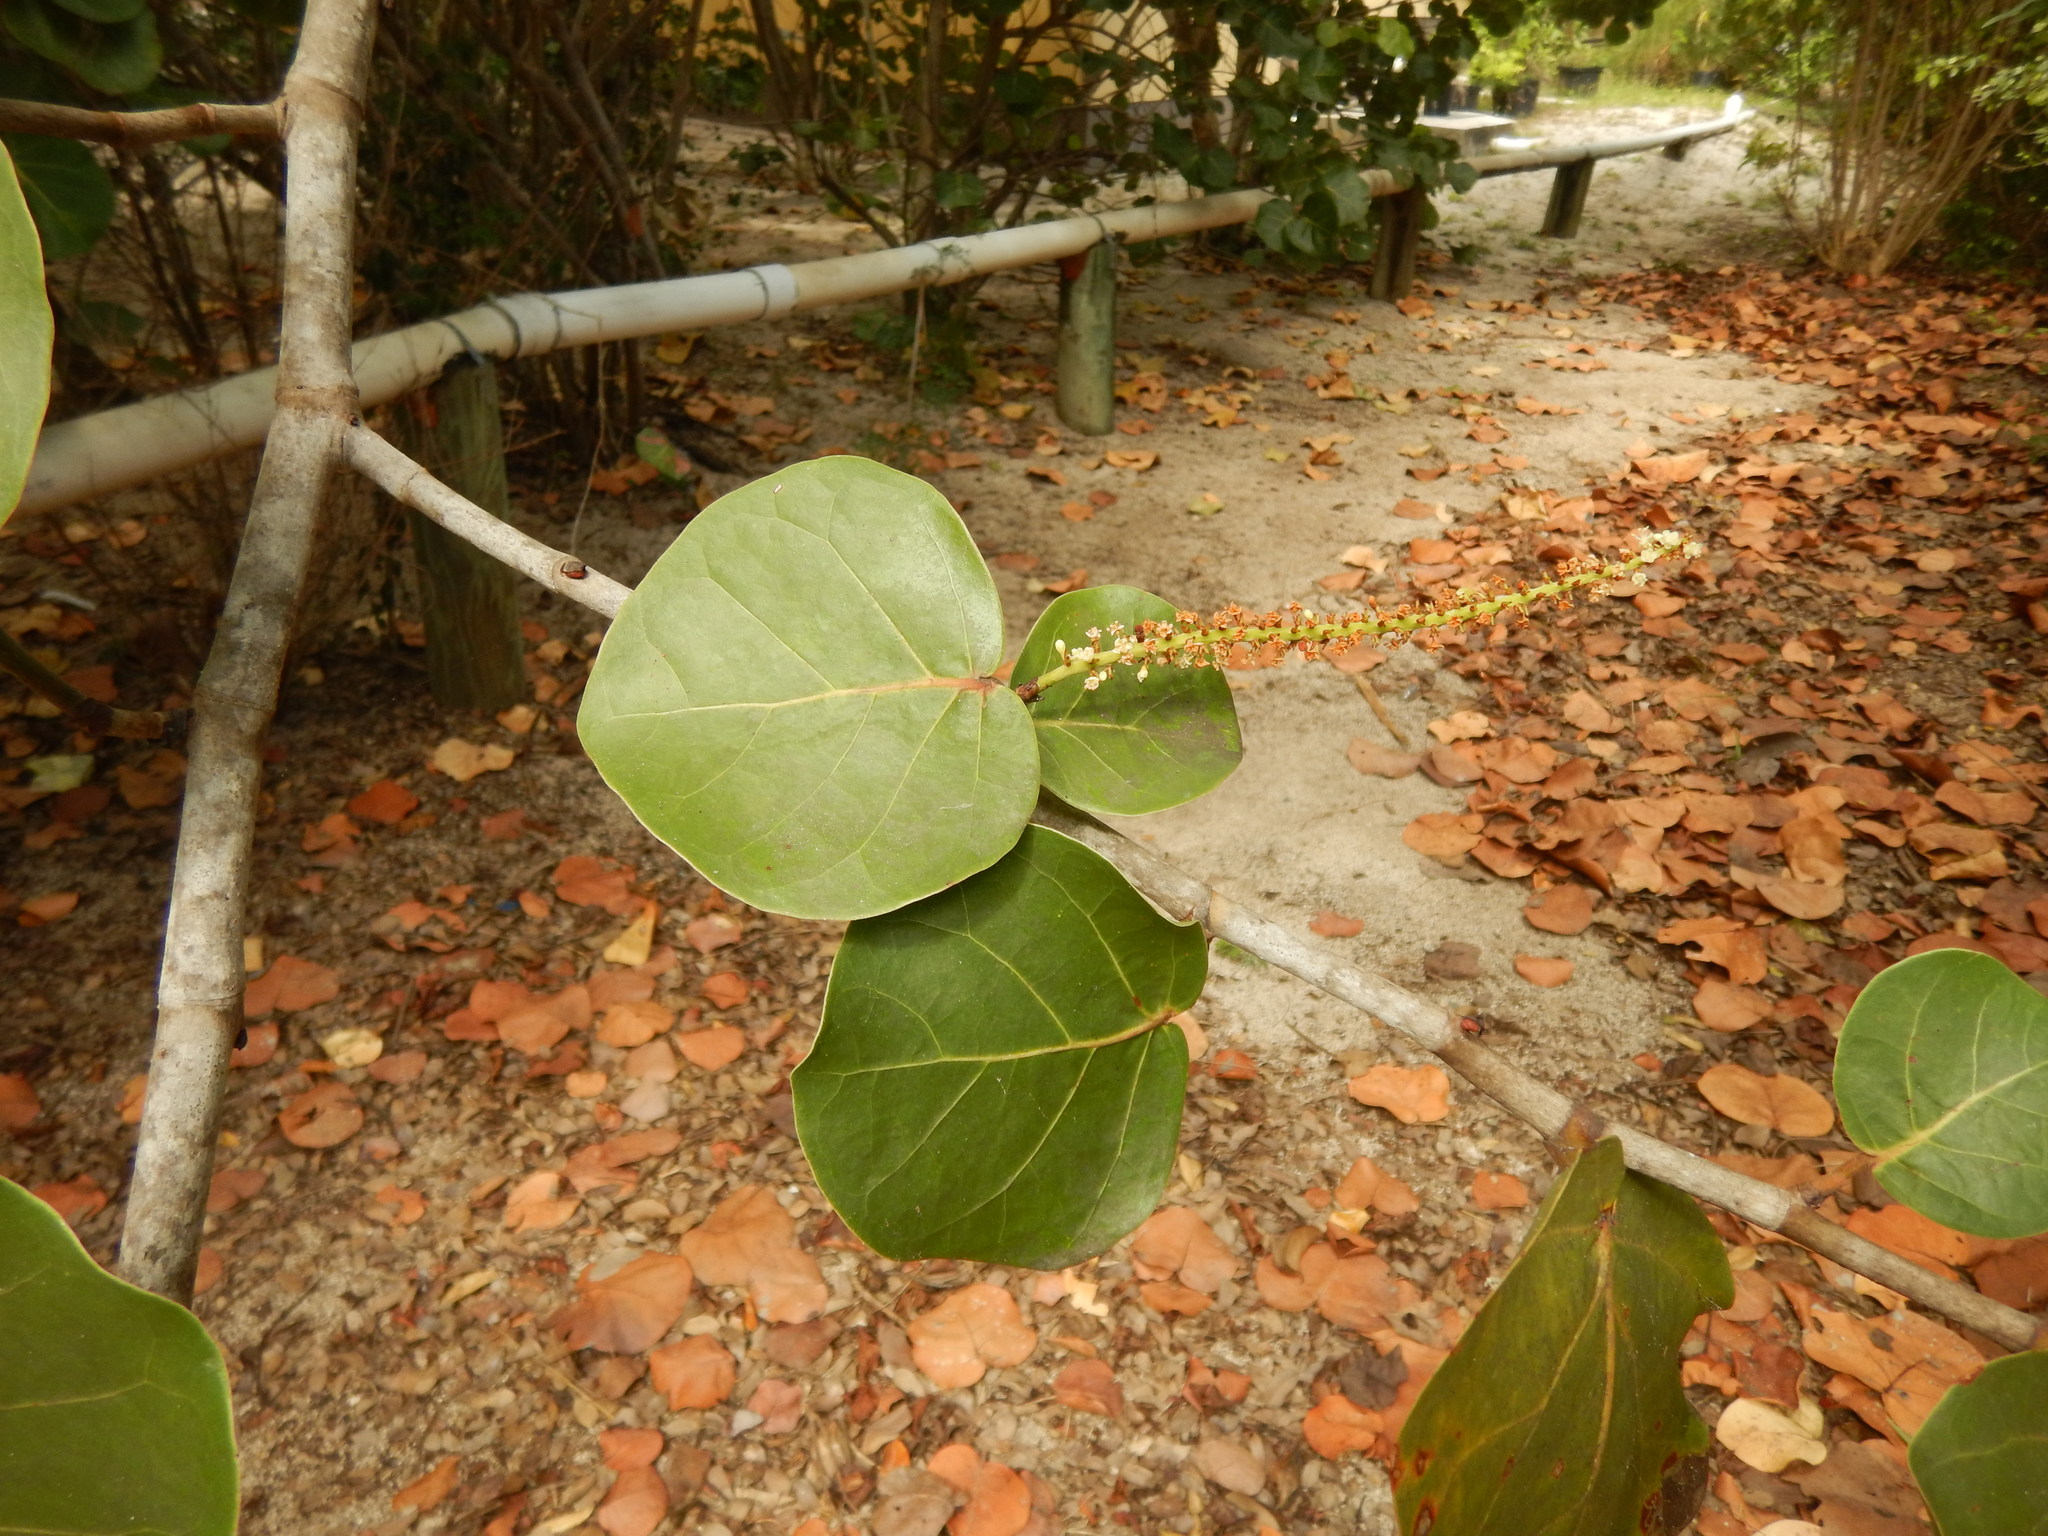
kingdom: Plantae
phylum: Tracheophyta
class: Magnoliopsida
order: Caryophyllales
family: Polygonaceae
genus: Coccoloba
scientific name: Coccoloba uvifera
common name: Seagrape
